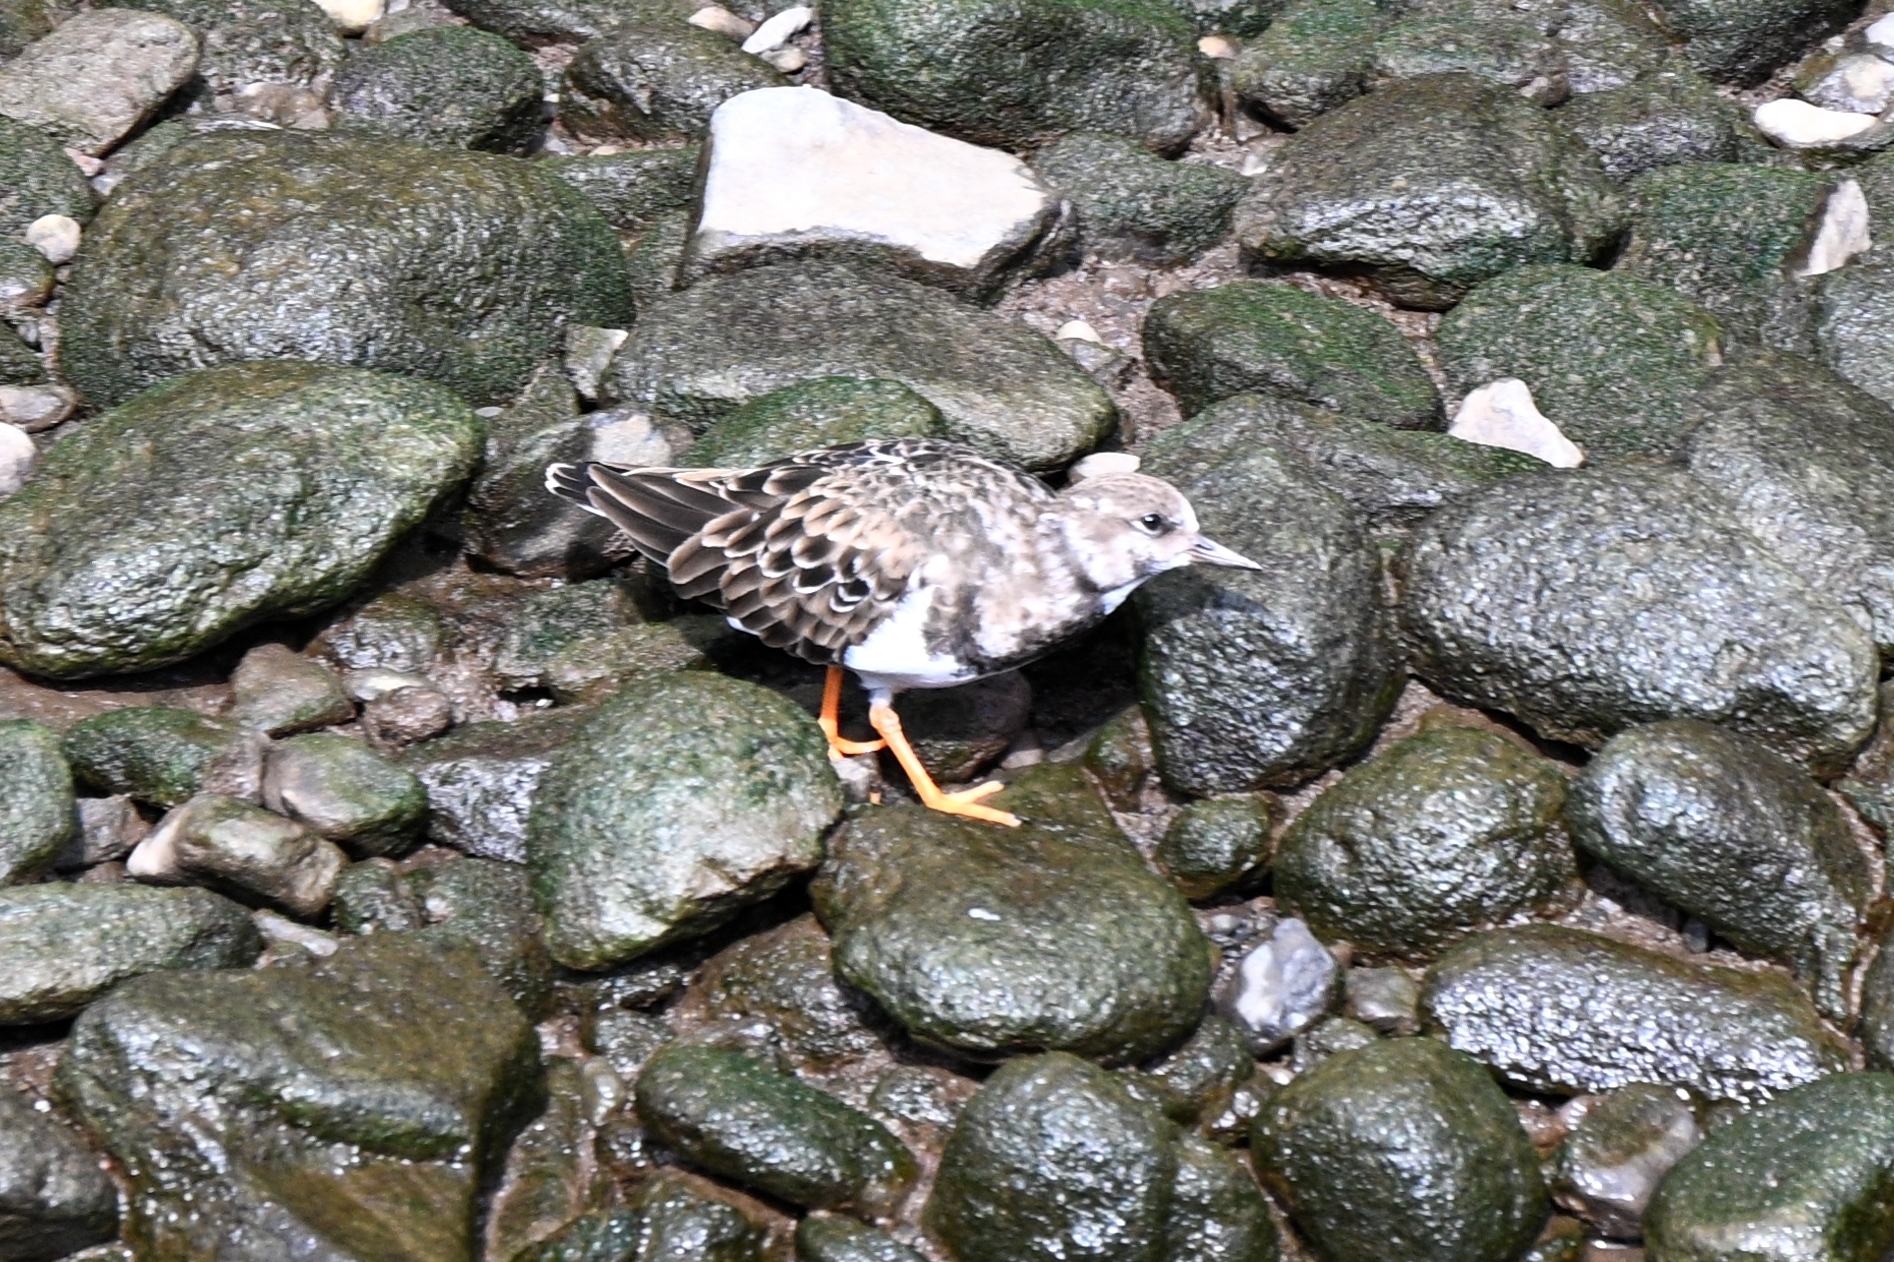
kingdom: Animalia
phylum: Chordata
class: Aves
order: Charadriiformes
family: Scolopacidae
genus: Arenaria
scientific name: Arenaria interpres
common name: Ruddy turnstone
